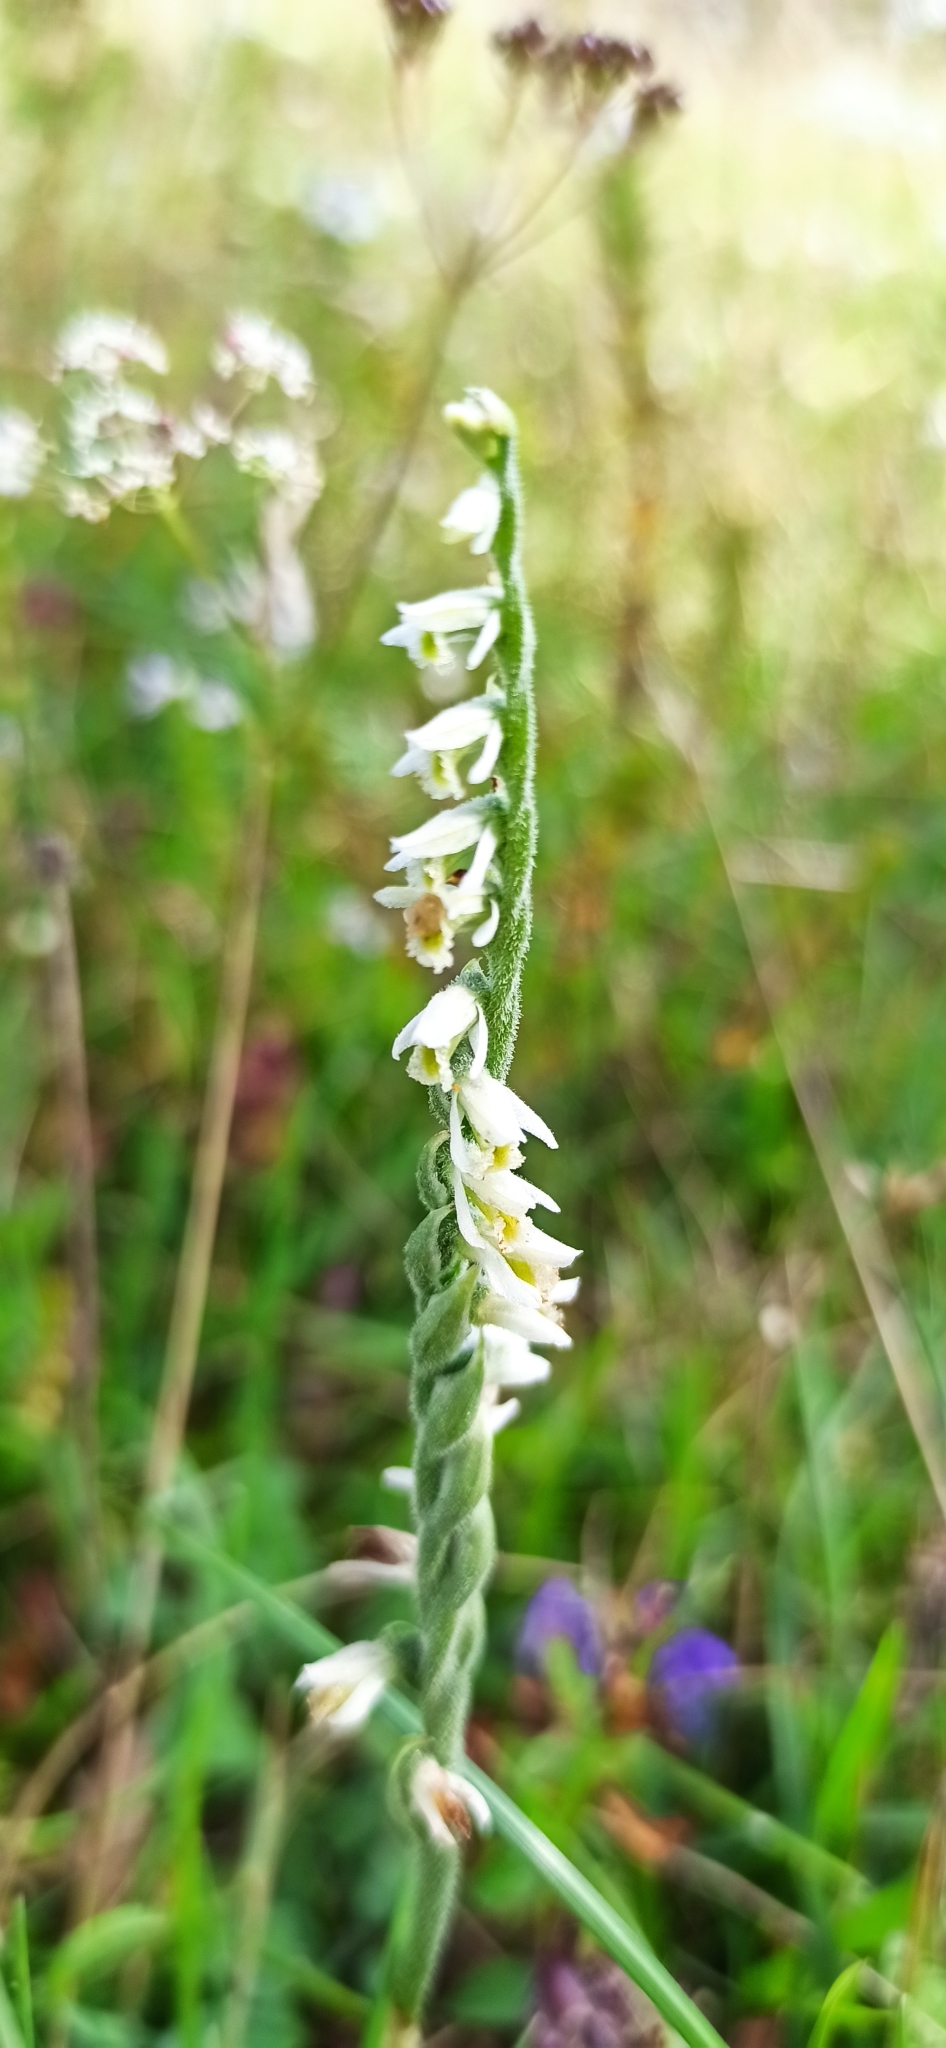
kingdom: Plantae
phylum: Tracheophyta
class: Liliopsida
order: Asparagales
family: Orchidaceae
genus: Spiranthes
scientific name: Spiranthes spiralis
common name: Autumn lady's-tresses
